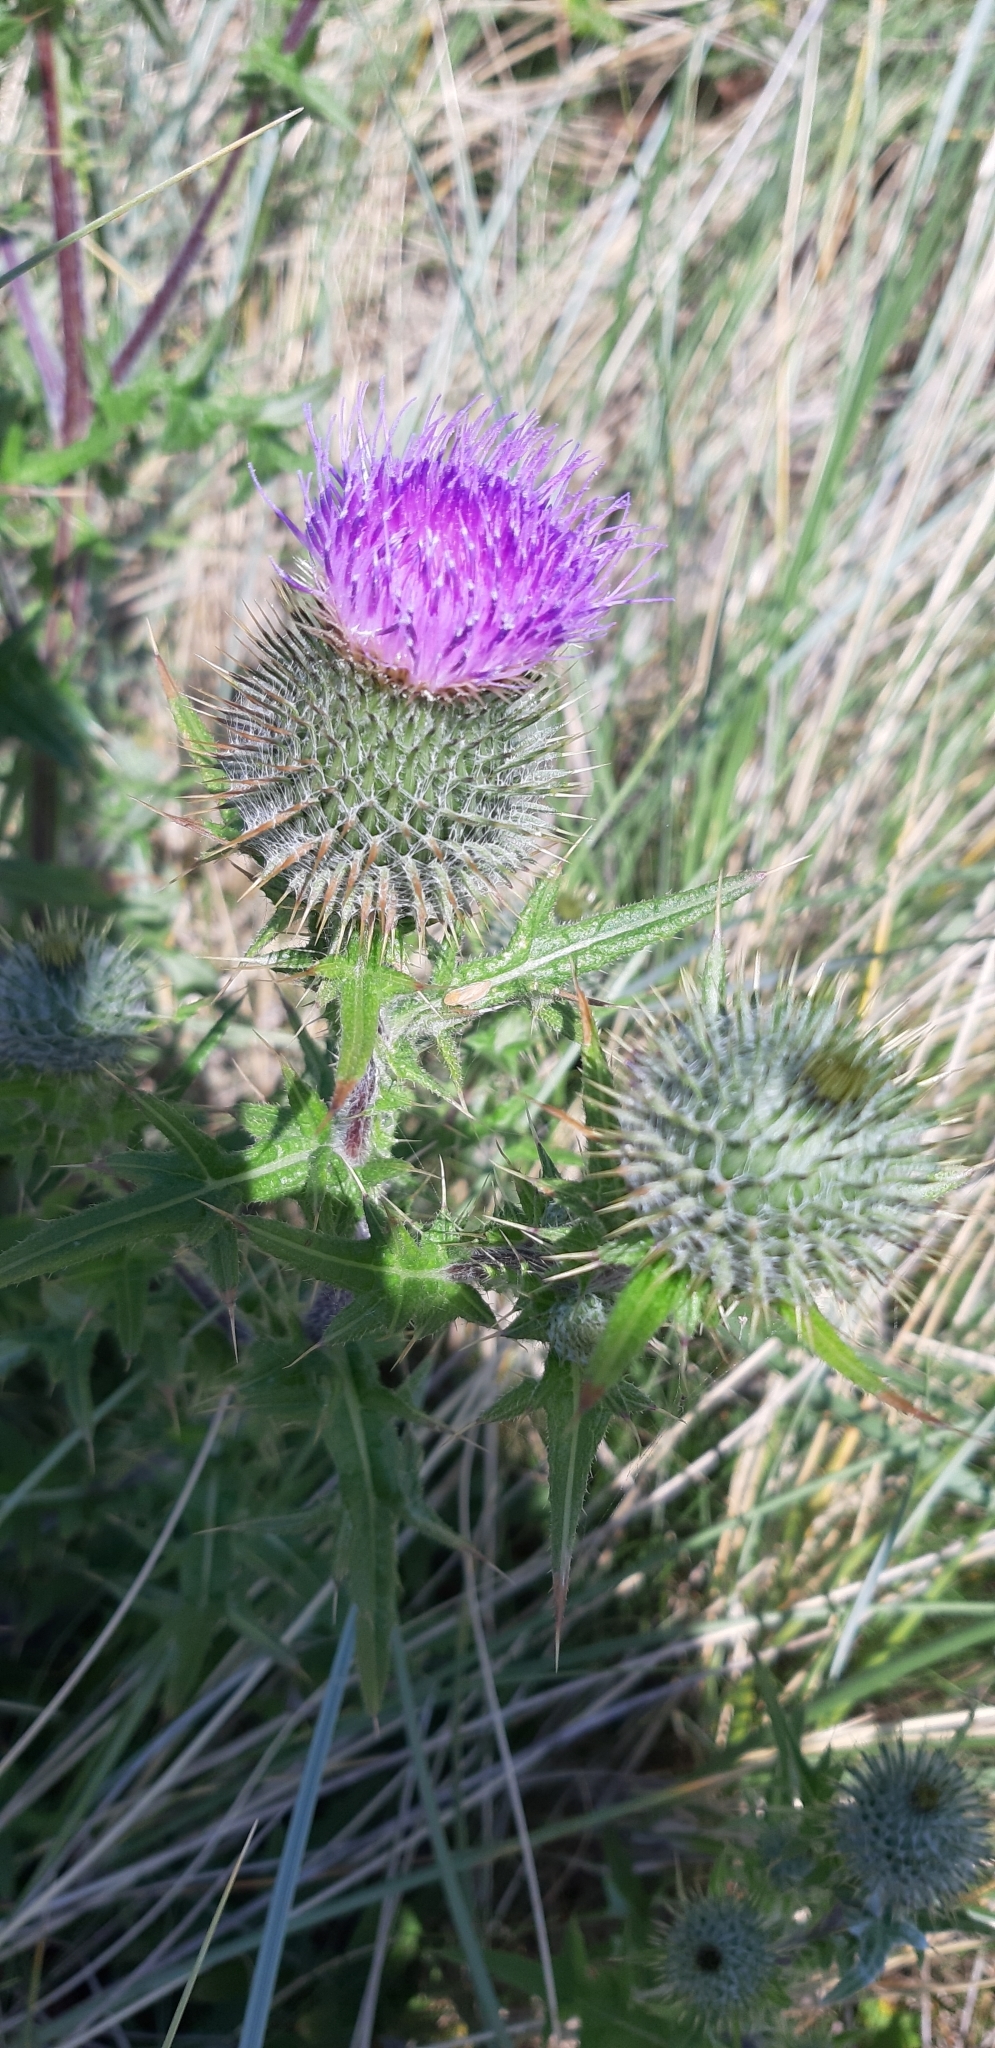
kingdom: Plantae
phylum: Tracheophyta
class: Magnoliopsida
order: Asterales
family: Asteraceae
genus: Cirsium
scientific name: Cirsium vulgare
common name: Bull thistle
